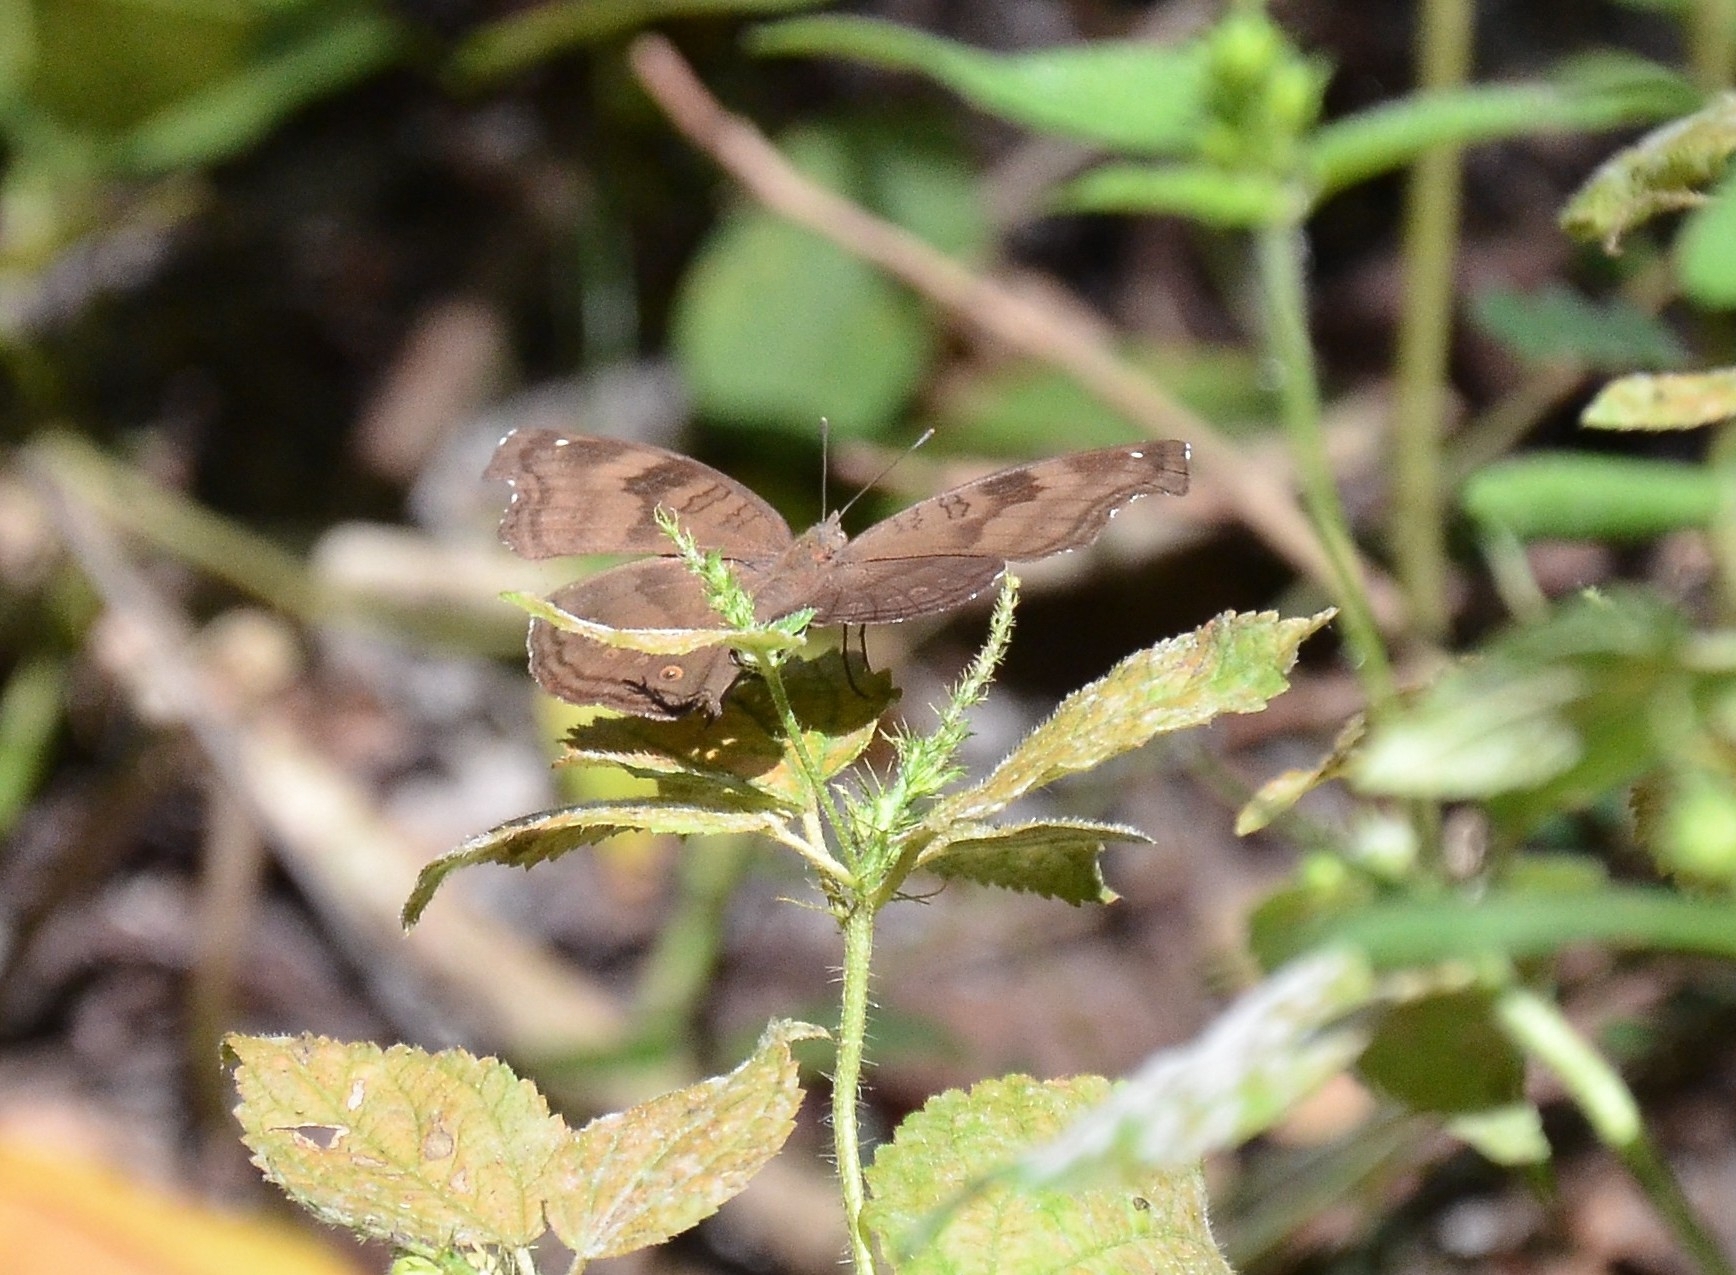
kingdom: Animalia
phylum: Arthropoda
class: Insecta
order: Lepidoptera
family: Nymphalidae
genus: Junonia
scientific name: Junonia iphita
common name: Chocolate pansy
